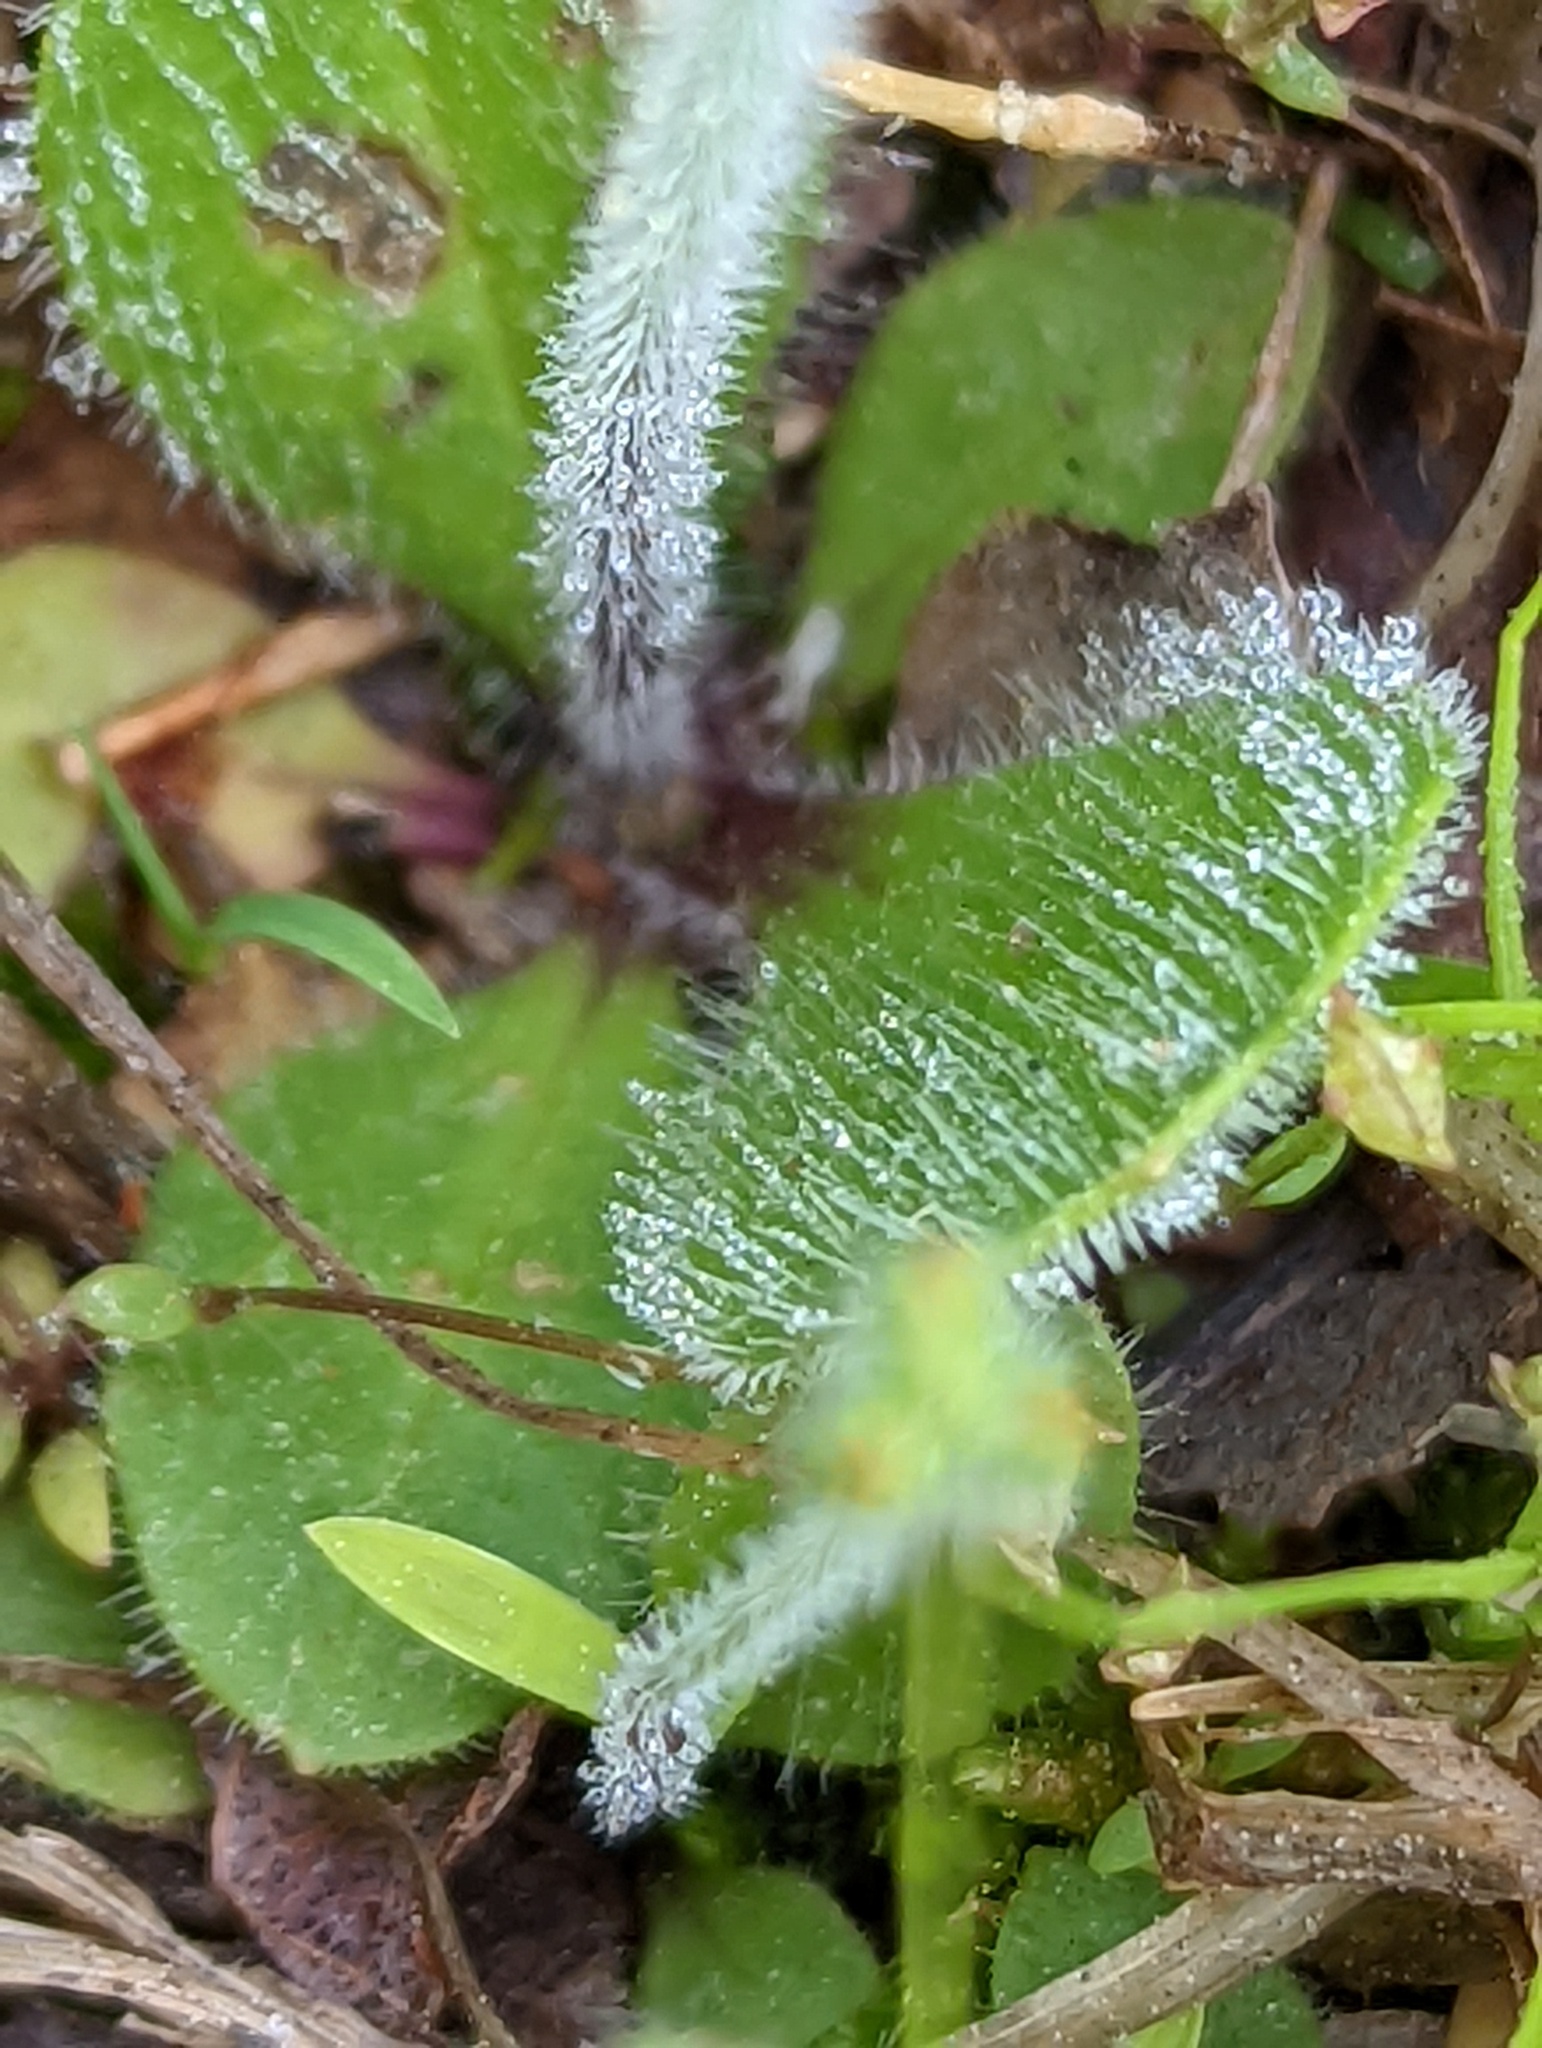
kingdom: Plantae
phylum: Tracheophyta
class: Magnoliopsida
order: Lamiales
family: Plantaginaceae
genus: Plantago
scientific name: Plantago virginica
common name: Hoary plantain
